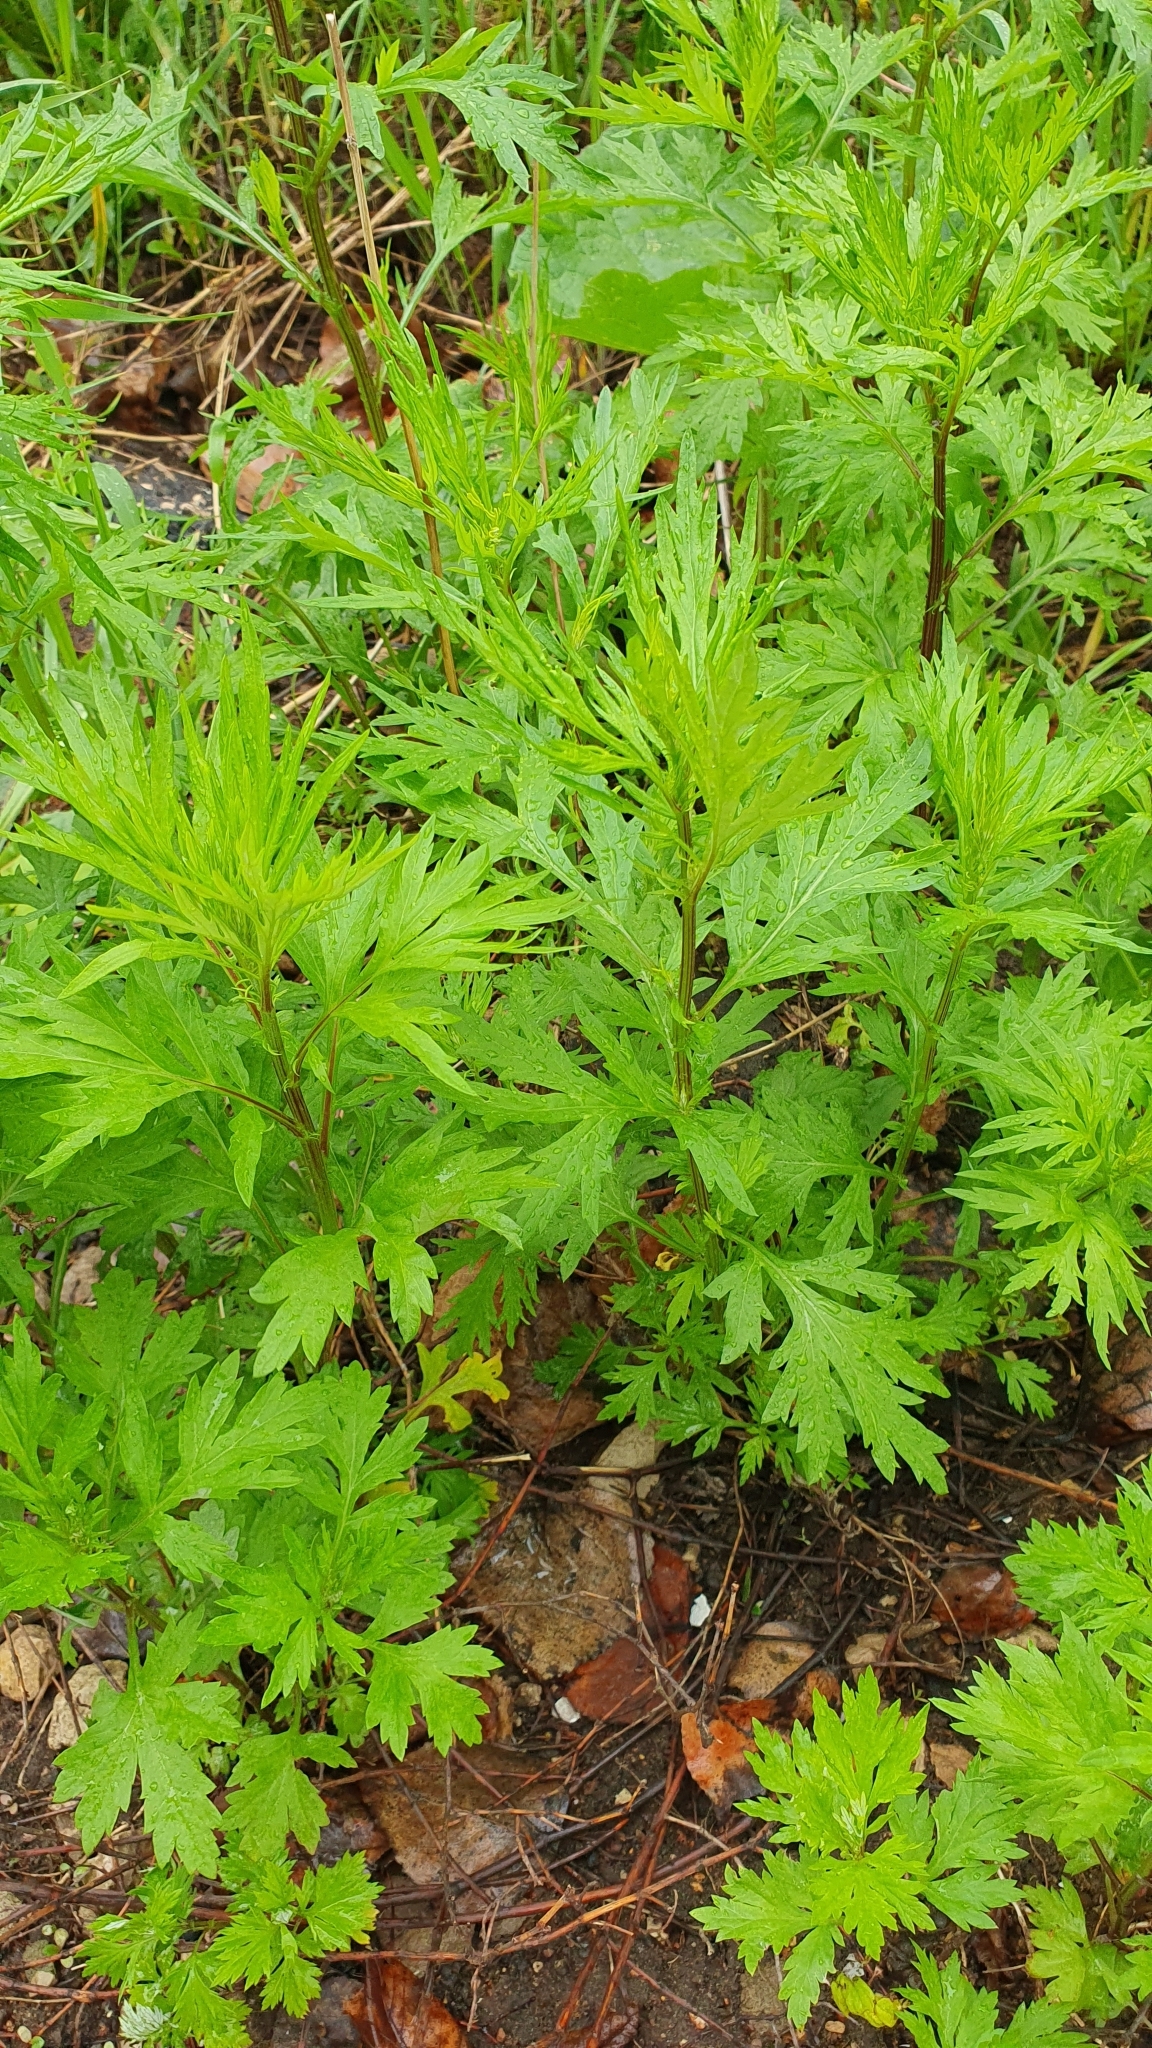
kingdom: Plantae
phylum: Tracheophyta
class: Magnoliopsida
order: Asterales
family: Asteraceae
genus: Artemisia
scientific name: Artemisia vulgaris
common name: Mugwort
